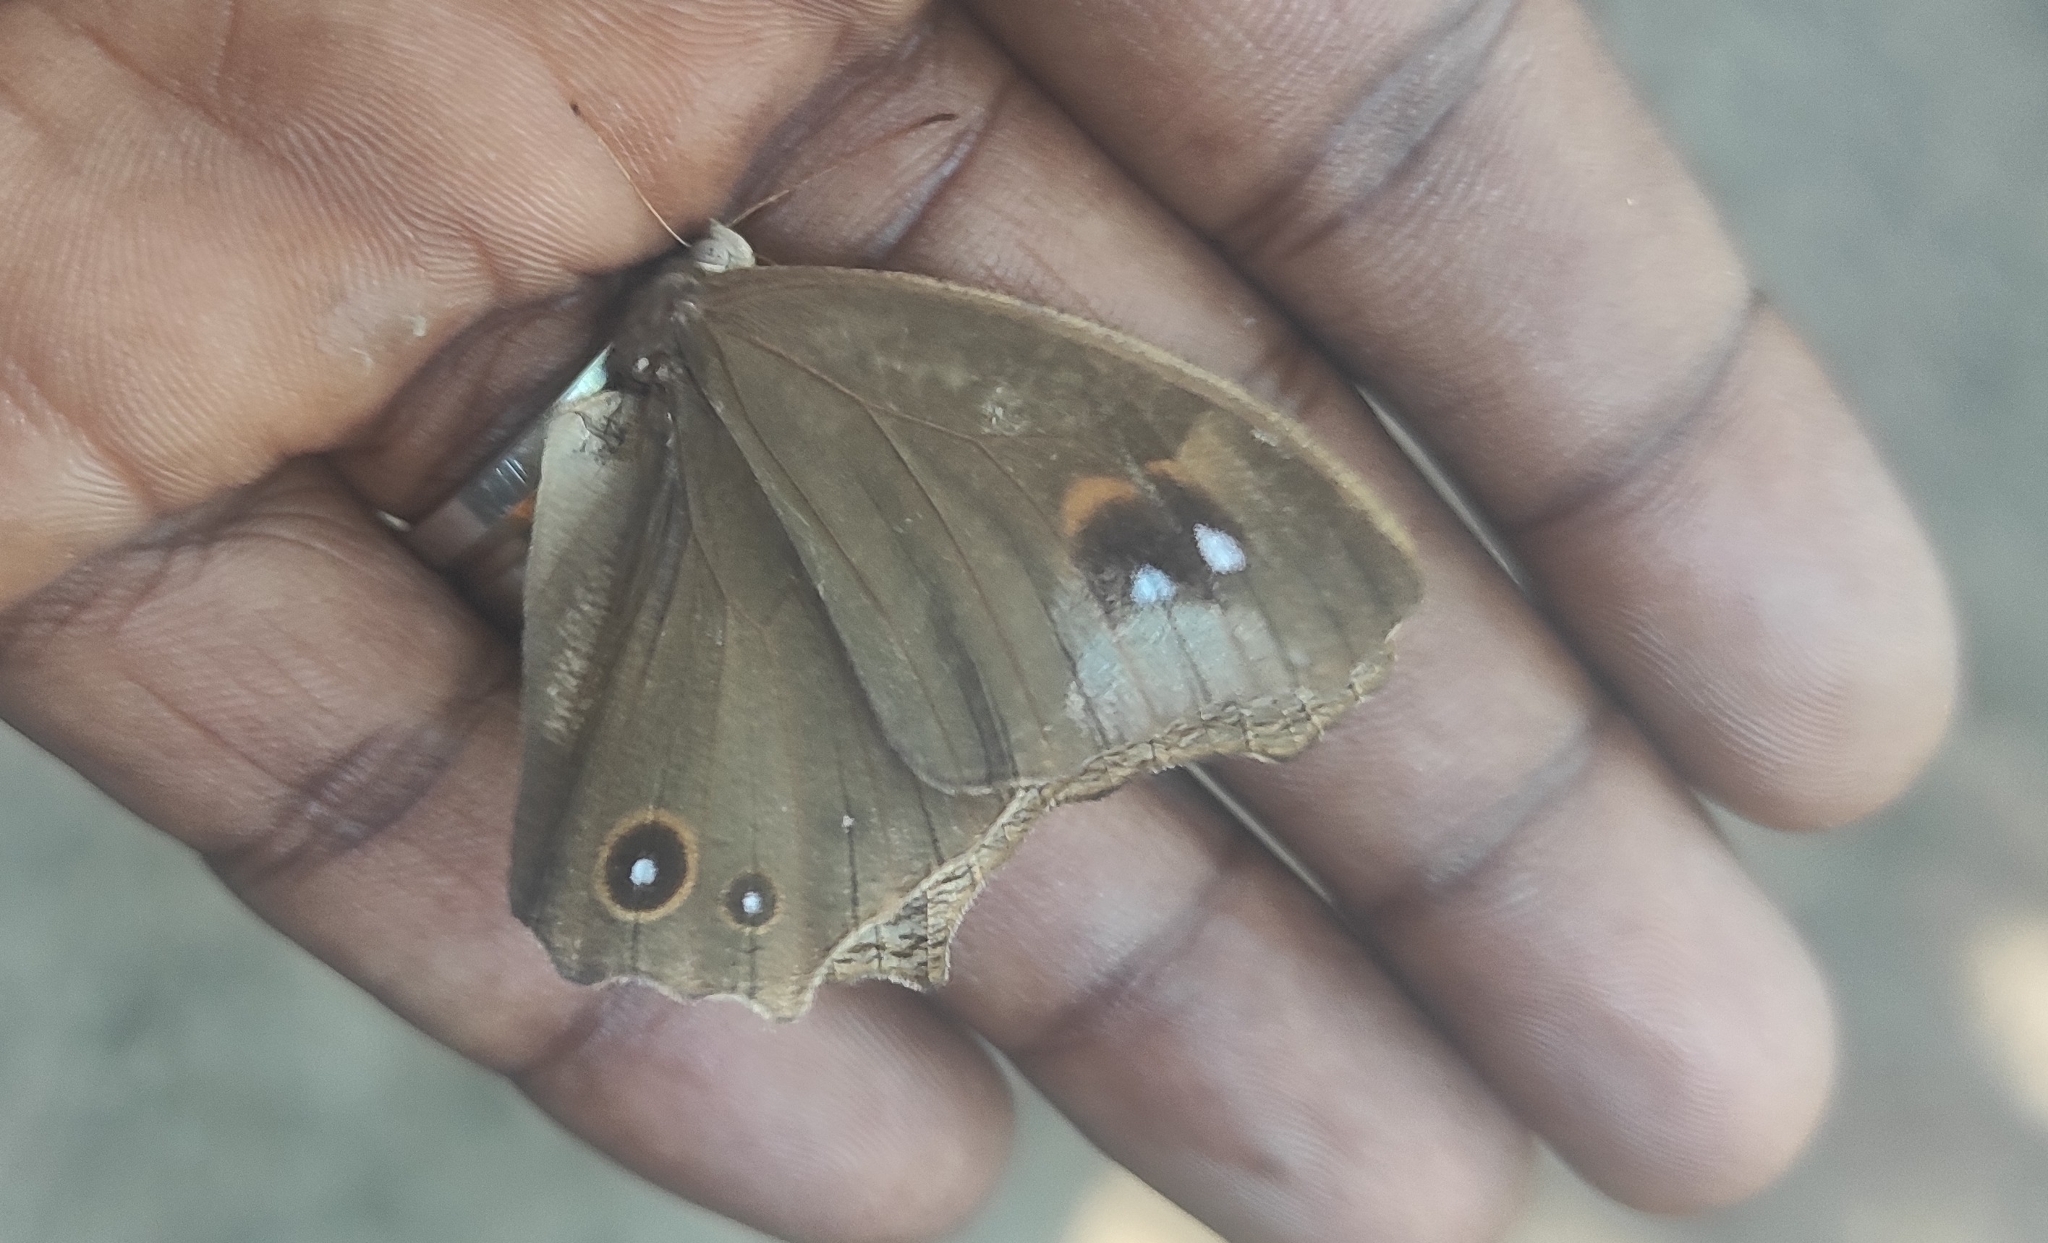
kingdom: Animalia
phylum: Arthropoda
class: Insecta
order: Lepidoptera
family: Nymphalidae
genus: Melanitis
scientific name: Melanitis leda
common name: Twilight brown
